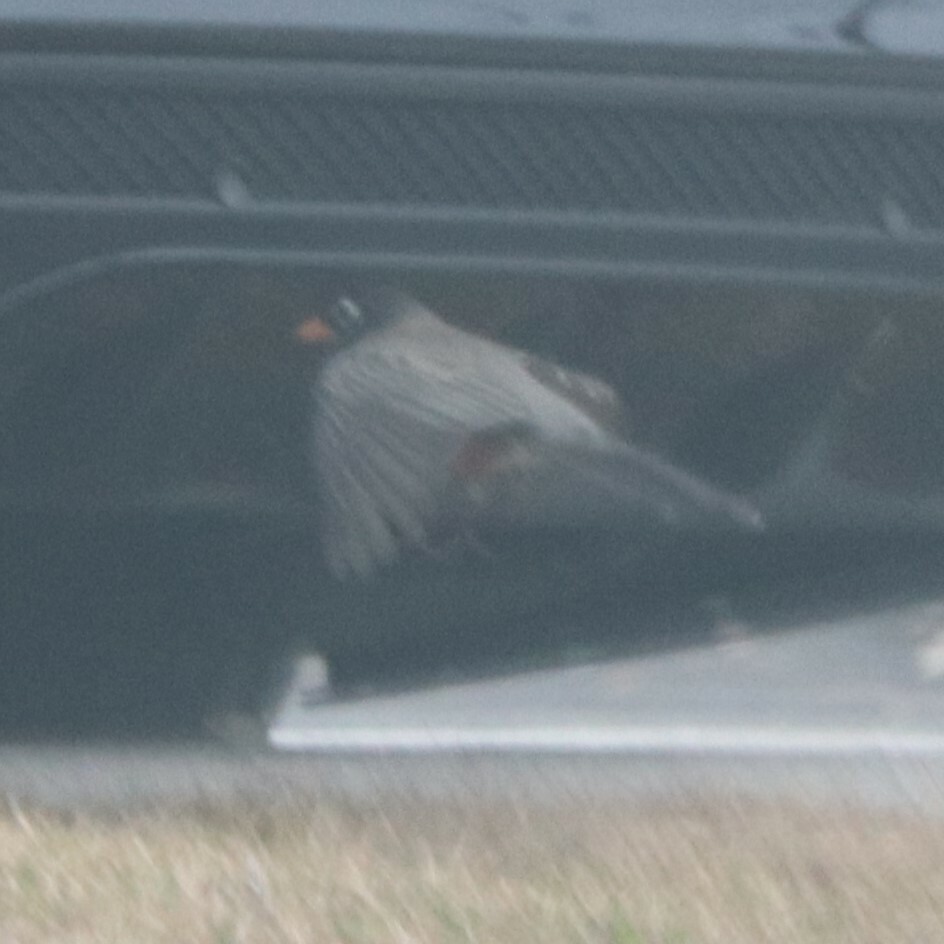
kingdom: Animalia
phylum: Chordata
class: Aves
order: Passeriformes
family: Turdidae
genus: Turdus
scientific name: Turdus migratorius
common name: American robin
